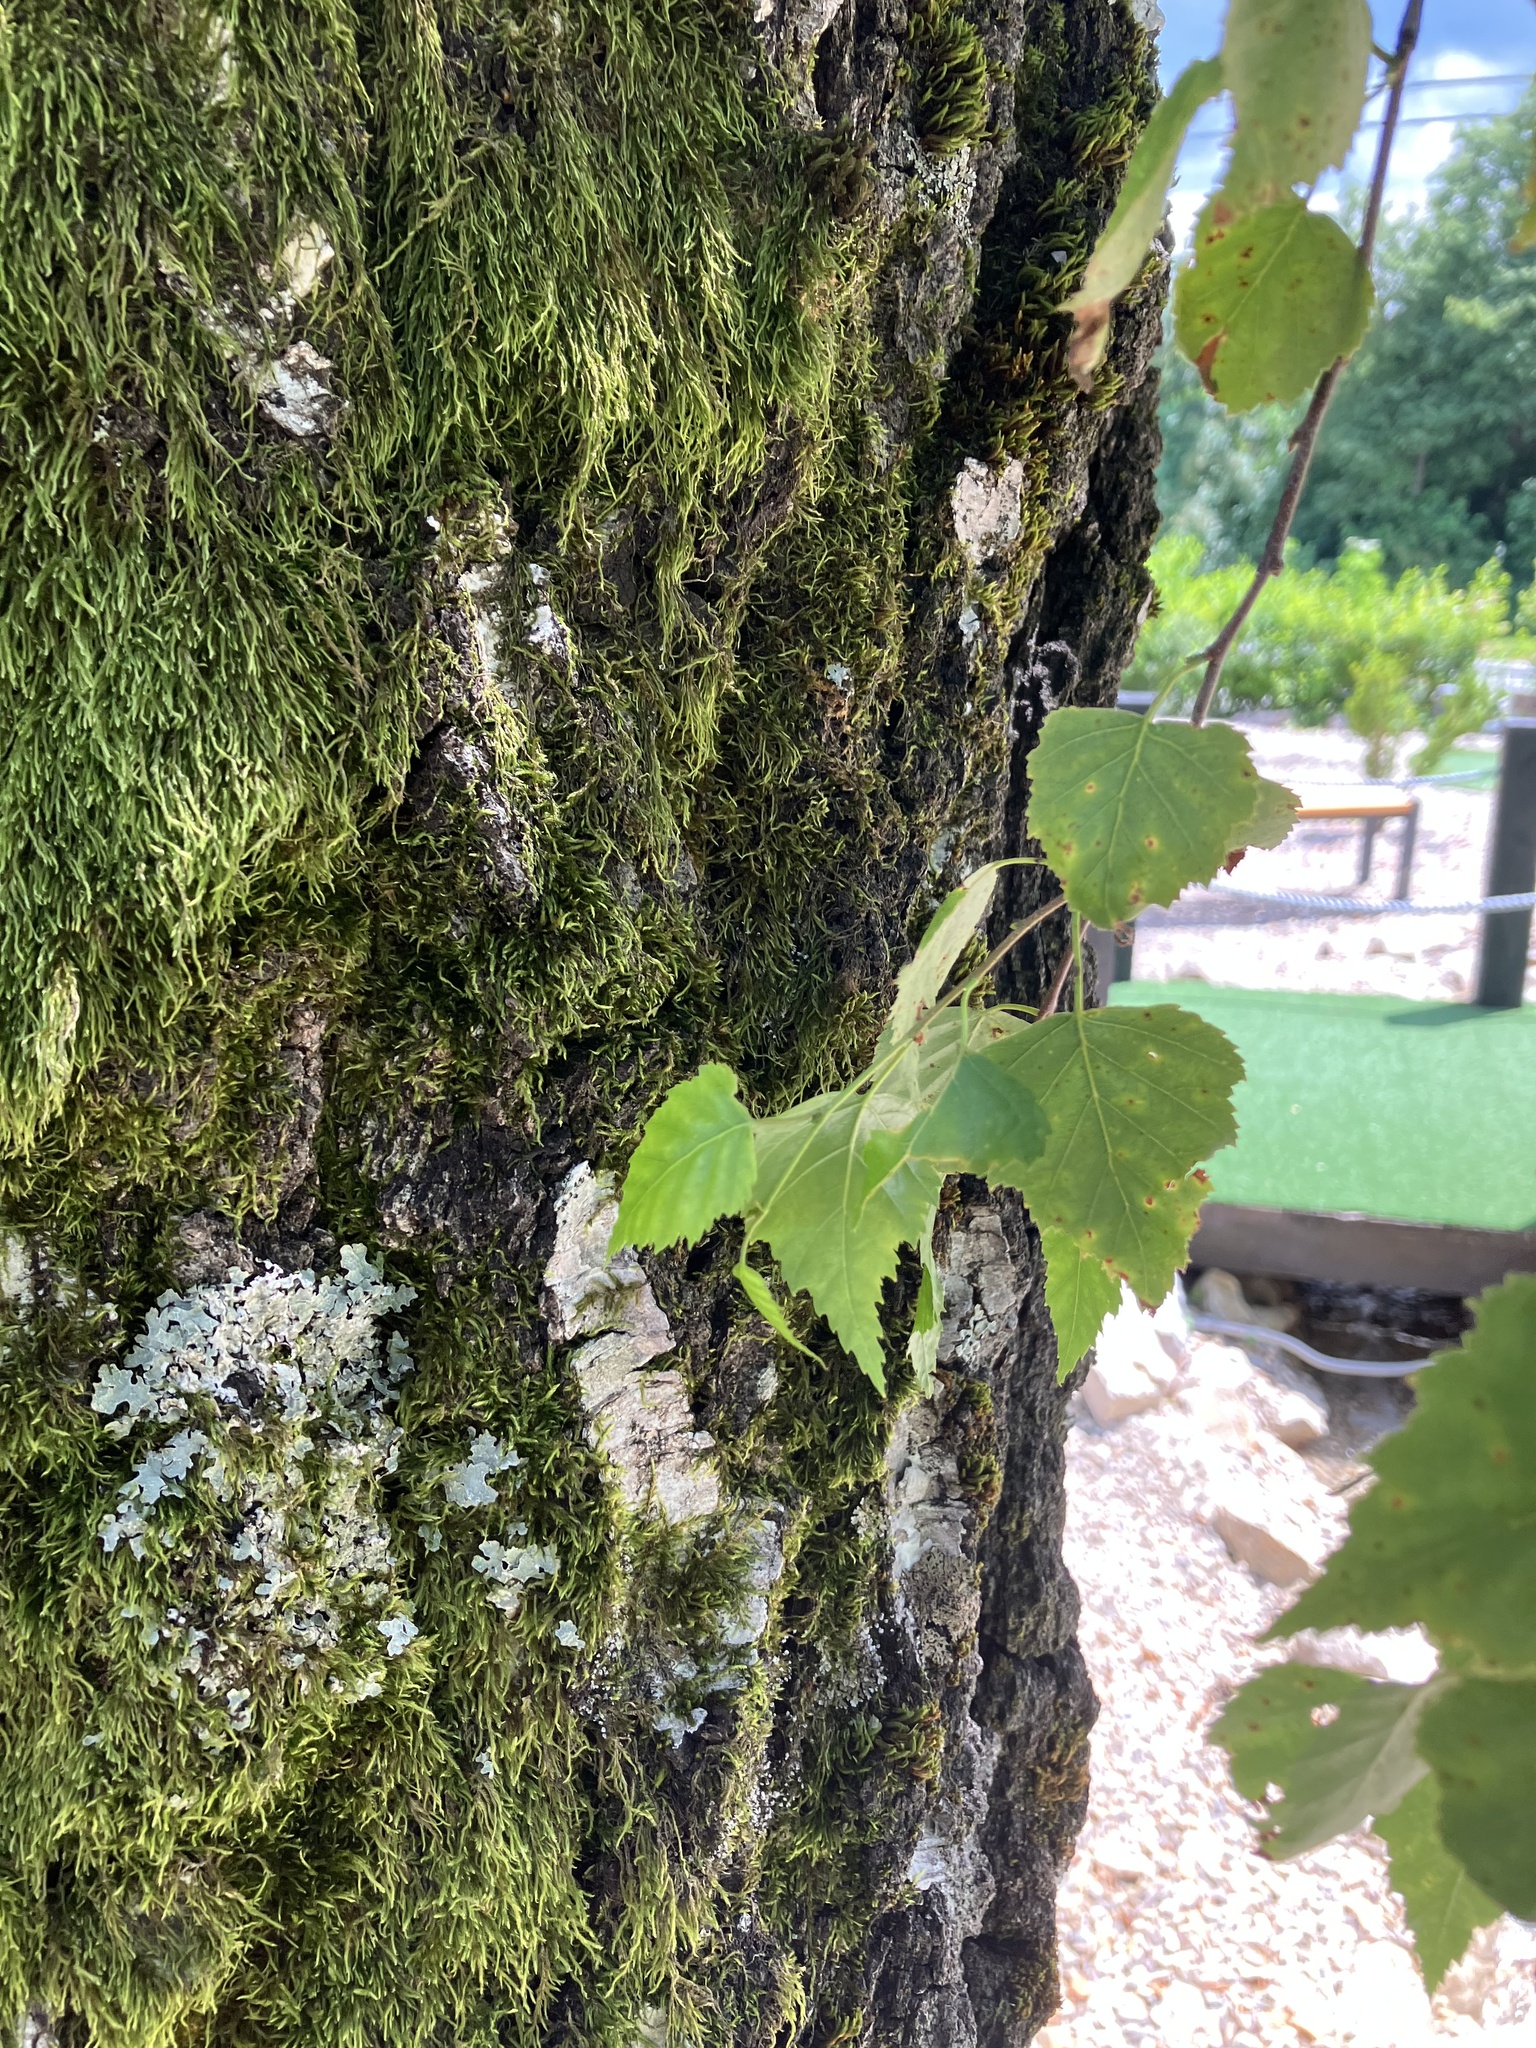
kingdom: Plantae
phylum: Tracheophyta
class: Magnoliopsida
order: Fagales
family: Betulaceae
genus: Betula
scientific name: Betula pendula
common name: Silver birch
